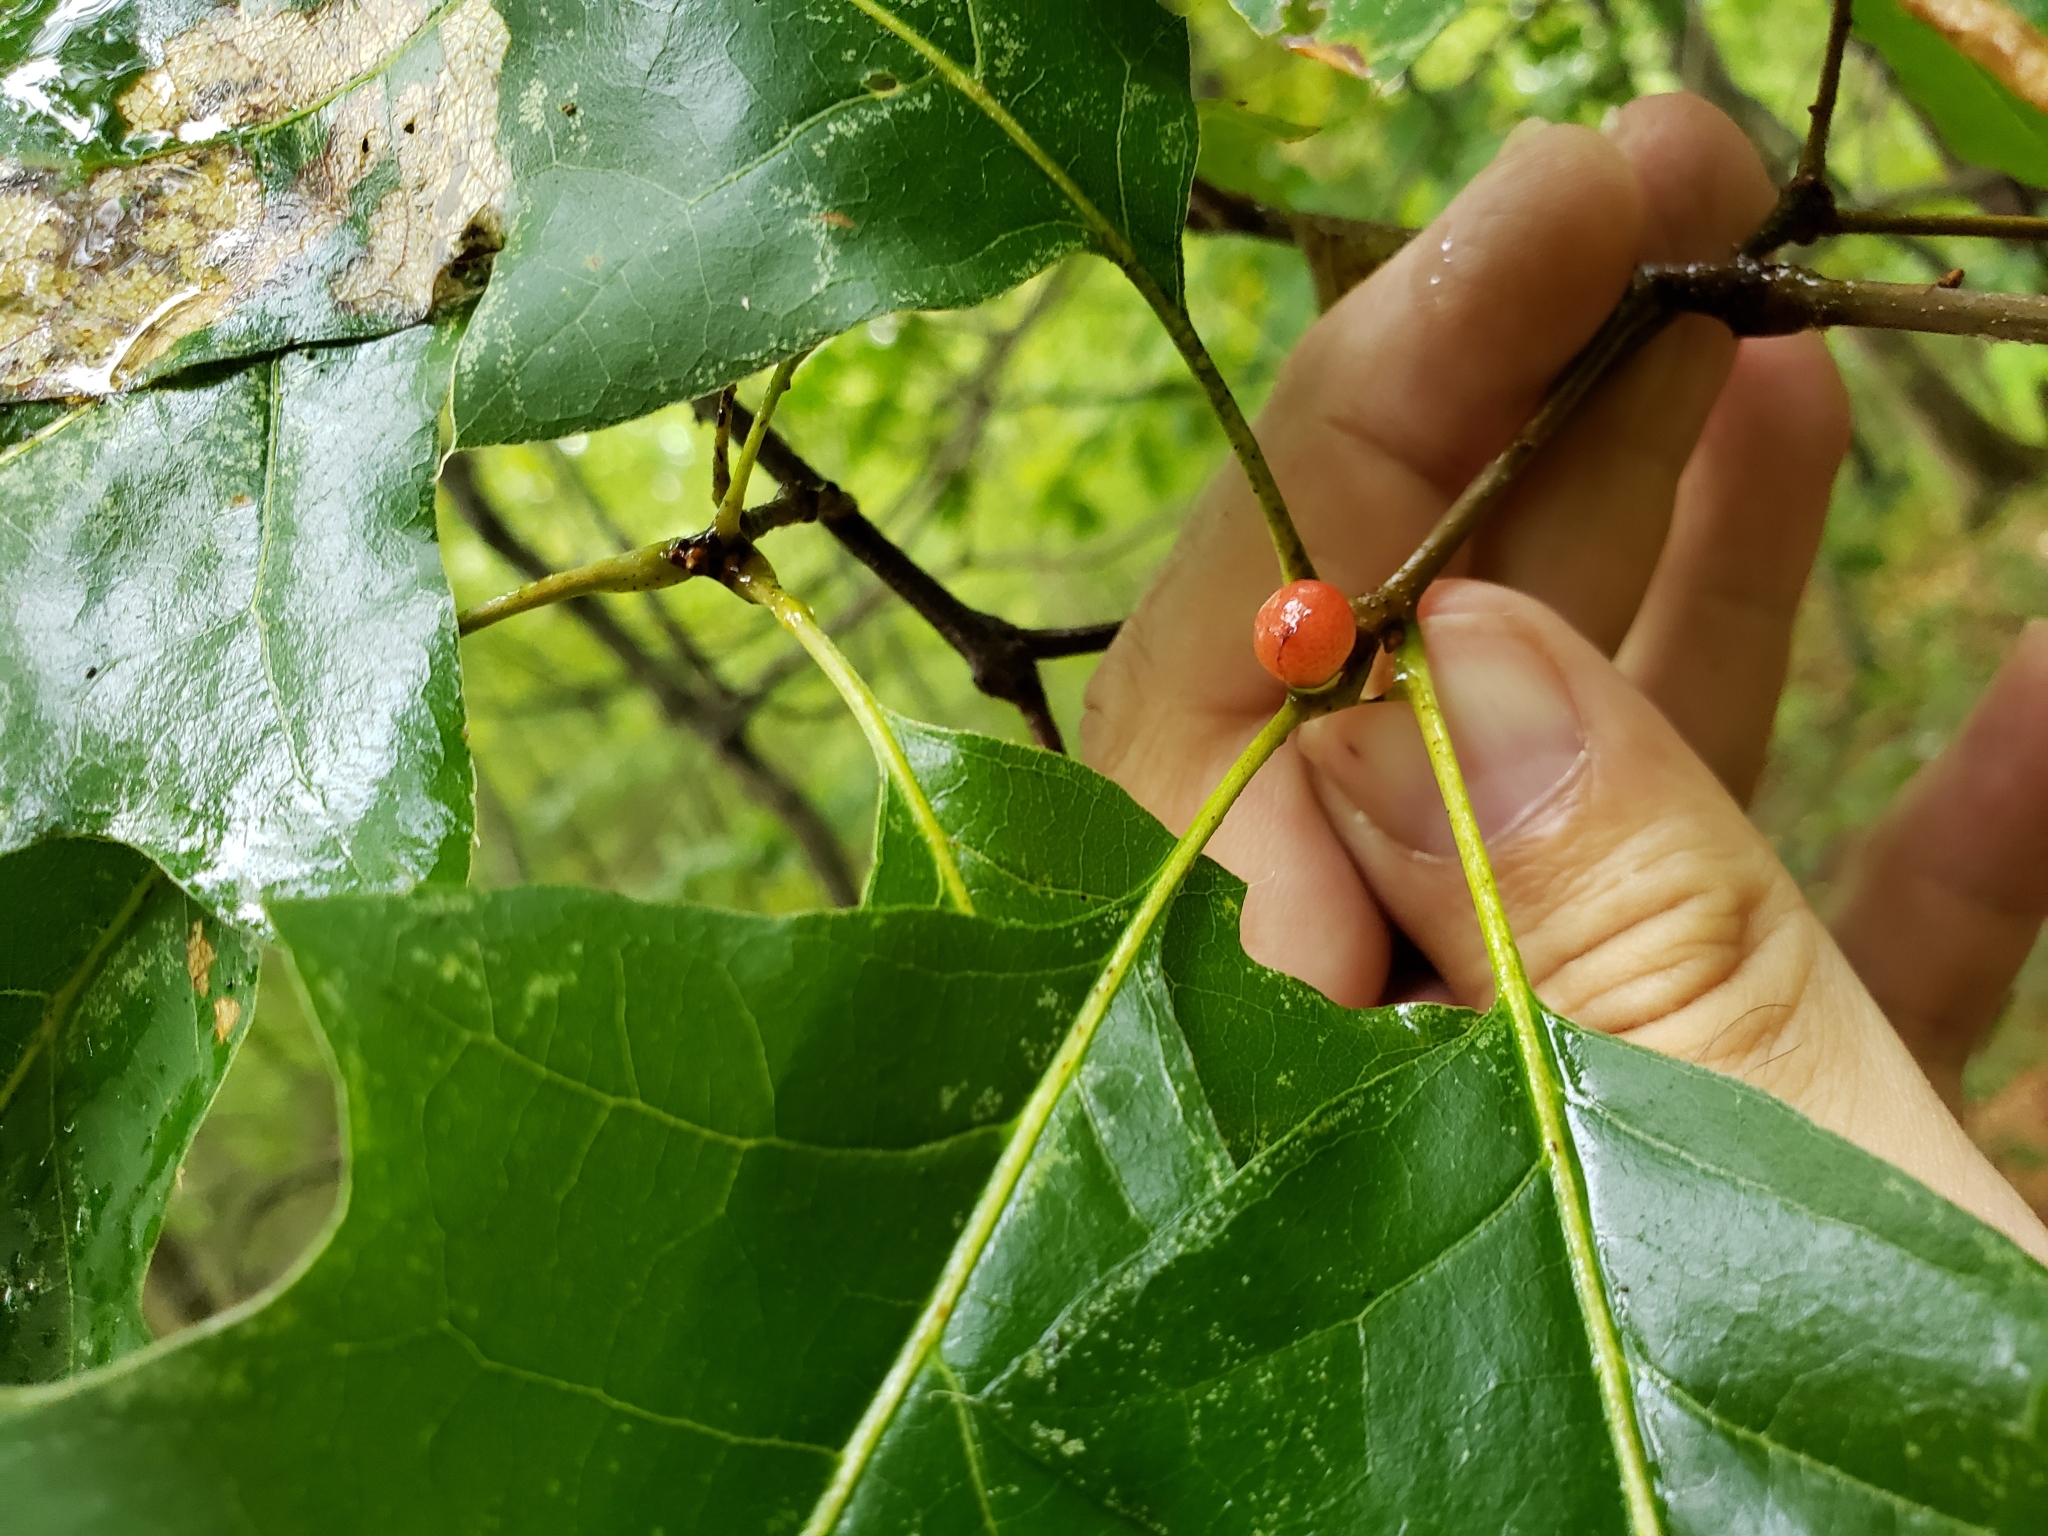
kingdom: Animalia
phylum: Arthropoda
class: Insecta
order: Hymenoptera
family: Cynipidae
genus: Amphibolips
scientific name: Amphibolips
